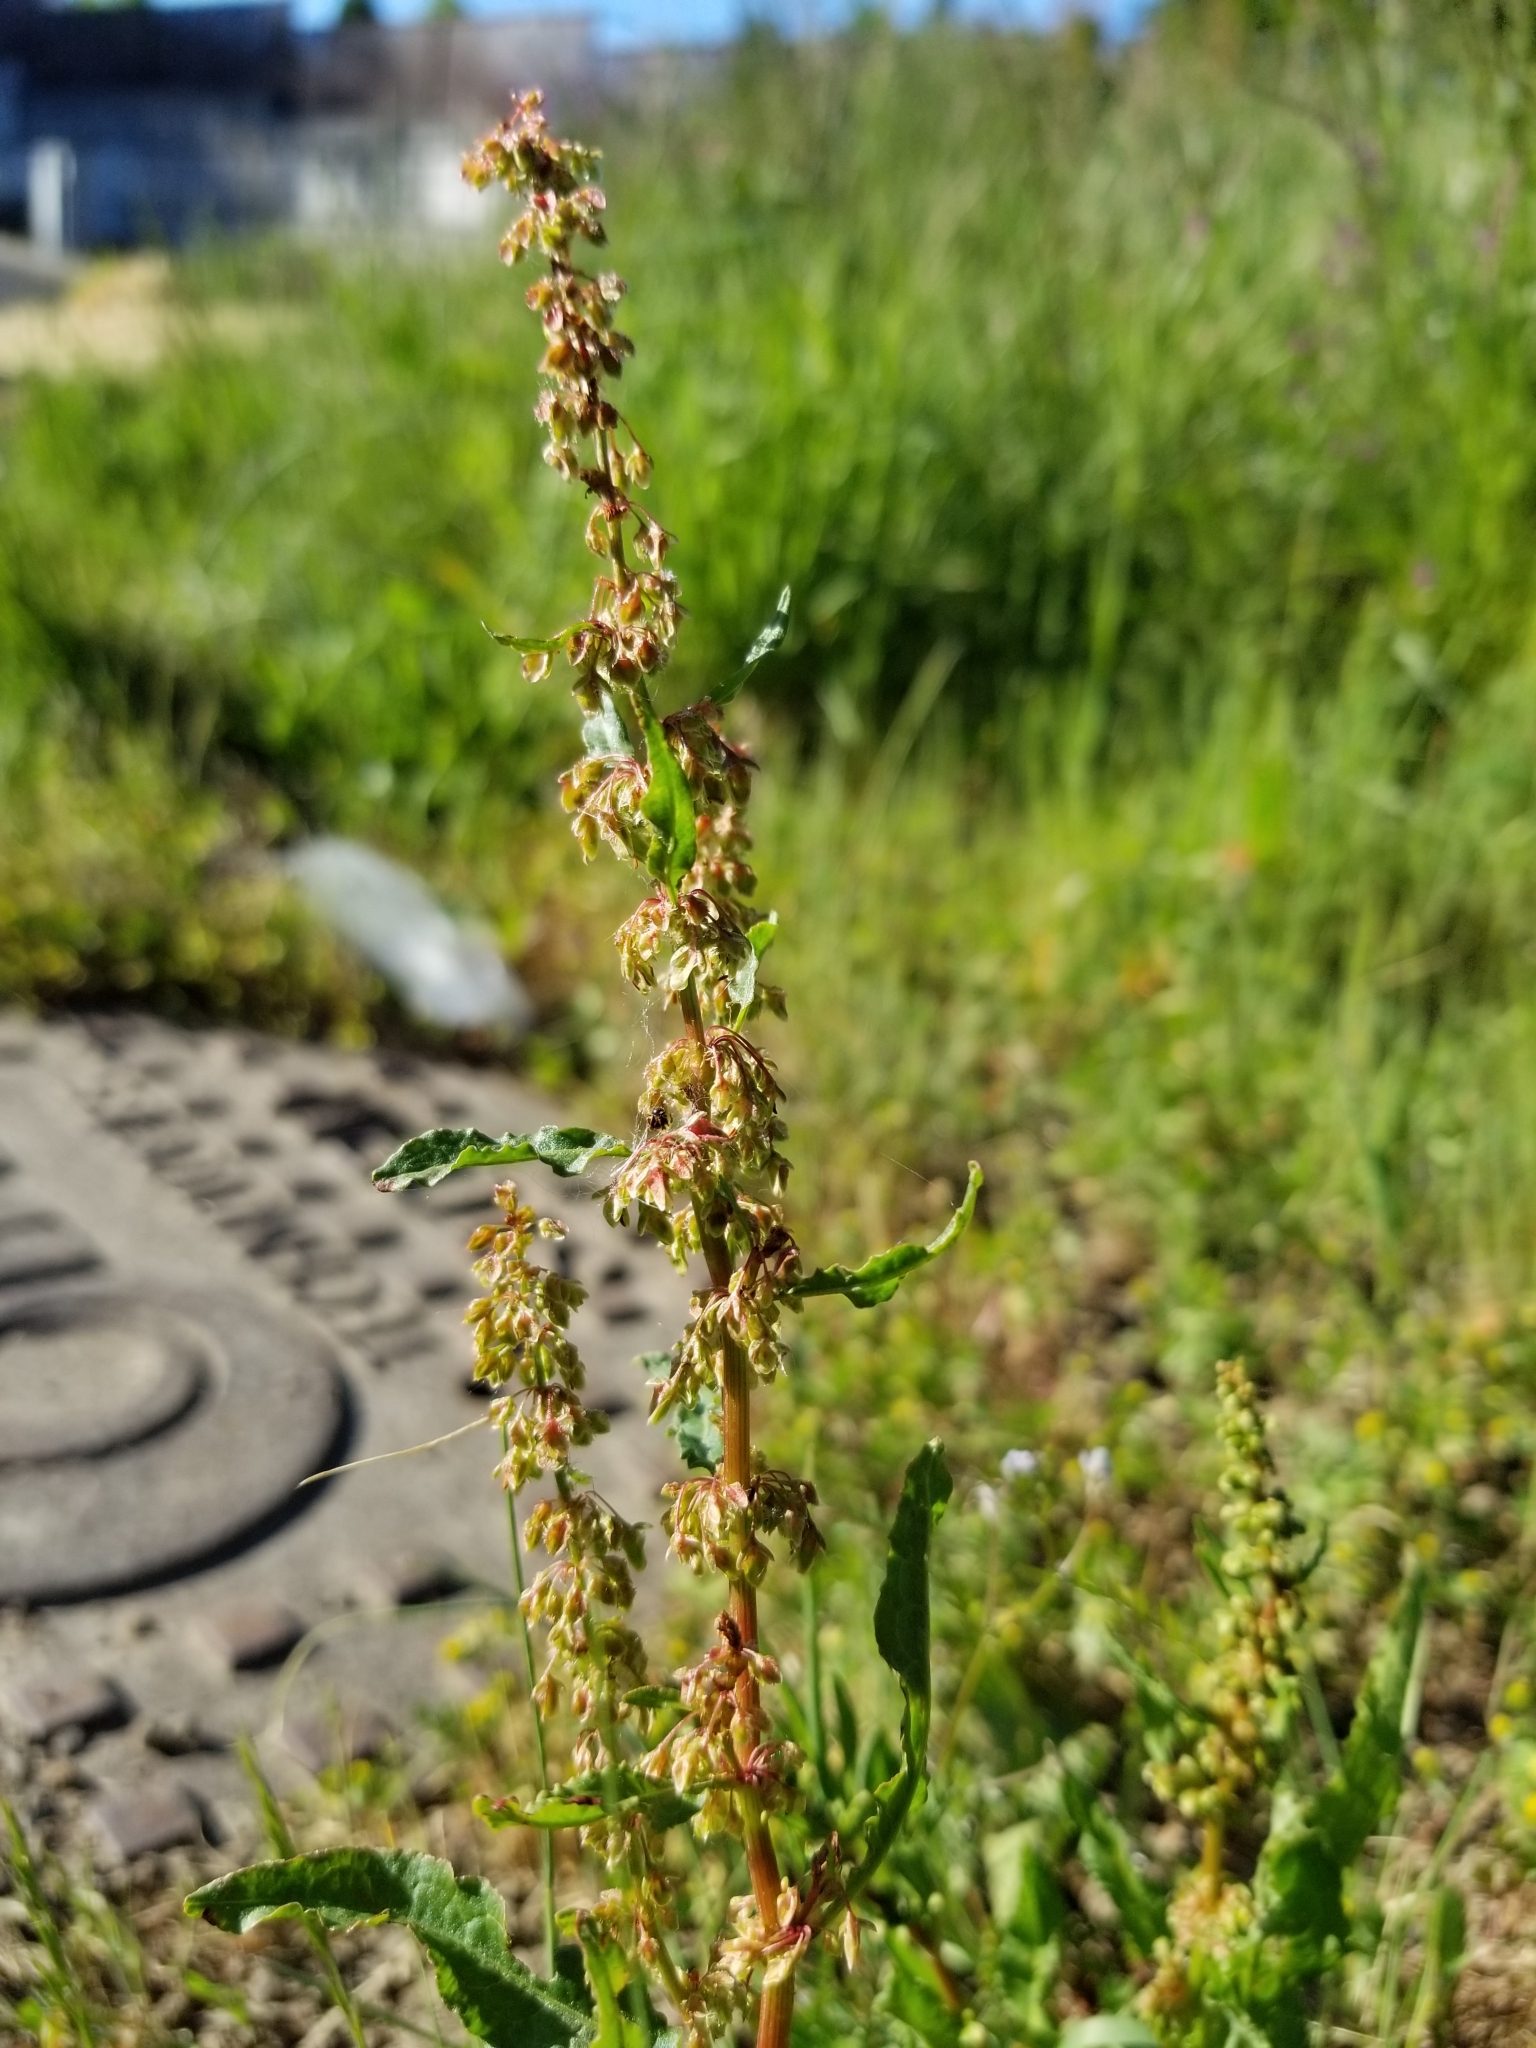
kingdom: Plantae
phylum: Tracheophyta
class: Magnoliopsida
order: Caryophyllales
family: Polygonaceae
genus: Rumex
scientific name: Rumex acetosella
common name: Common sheep sorrel
